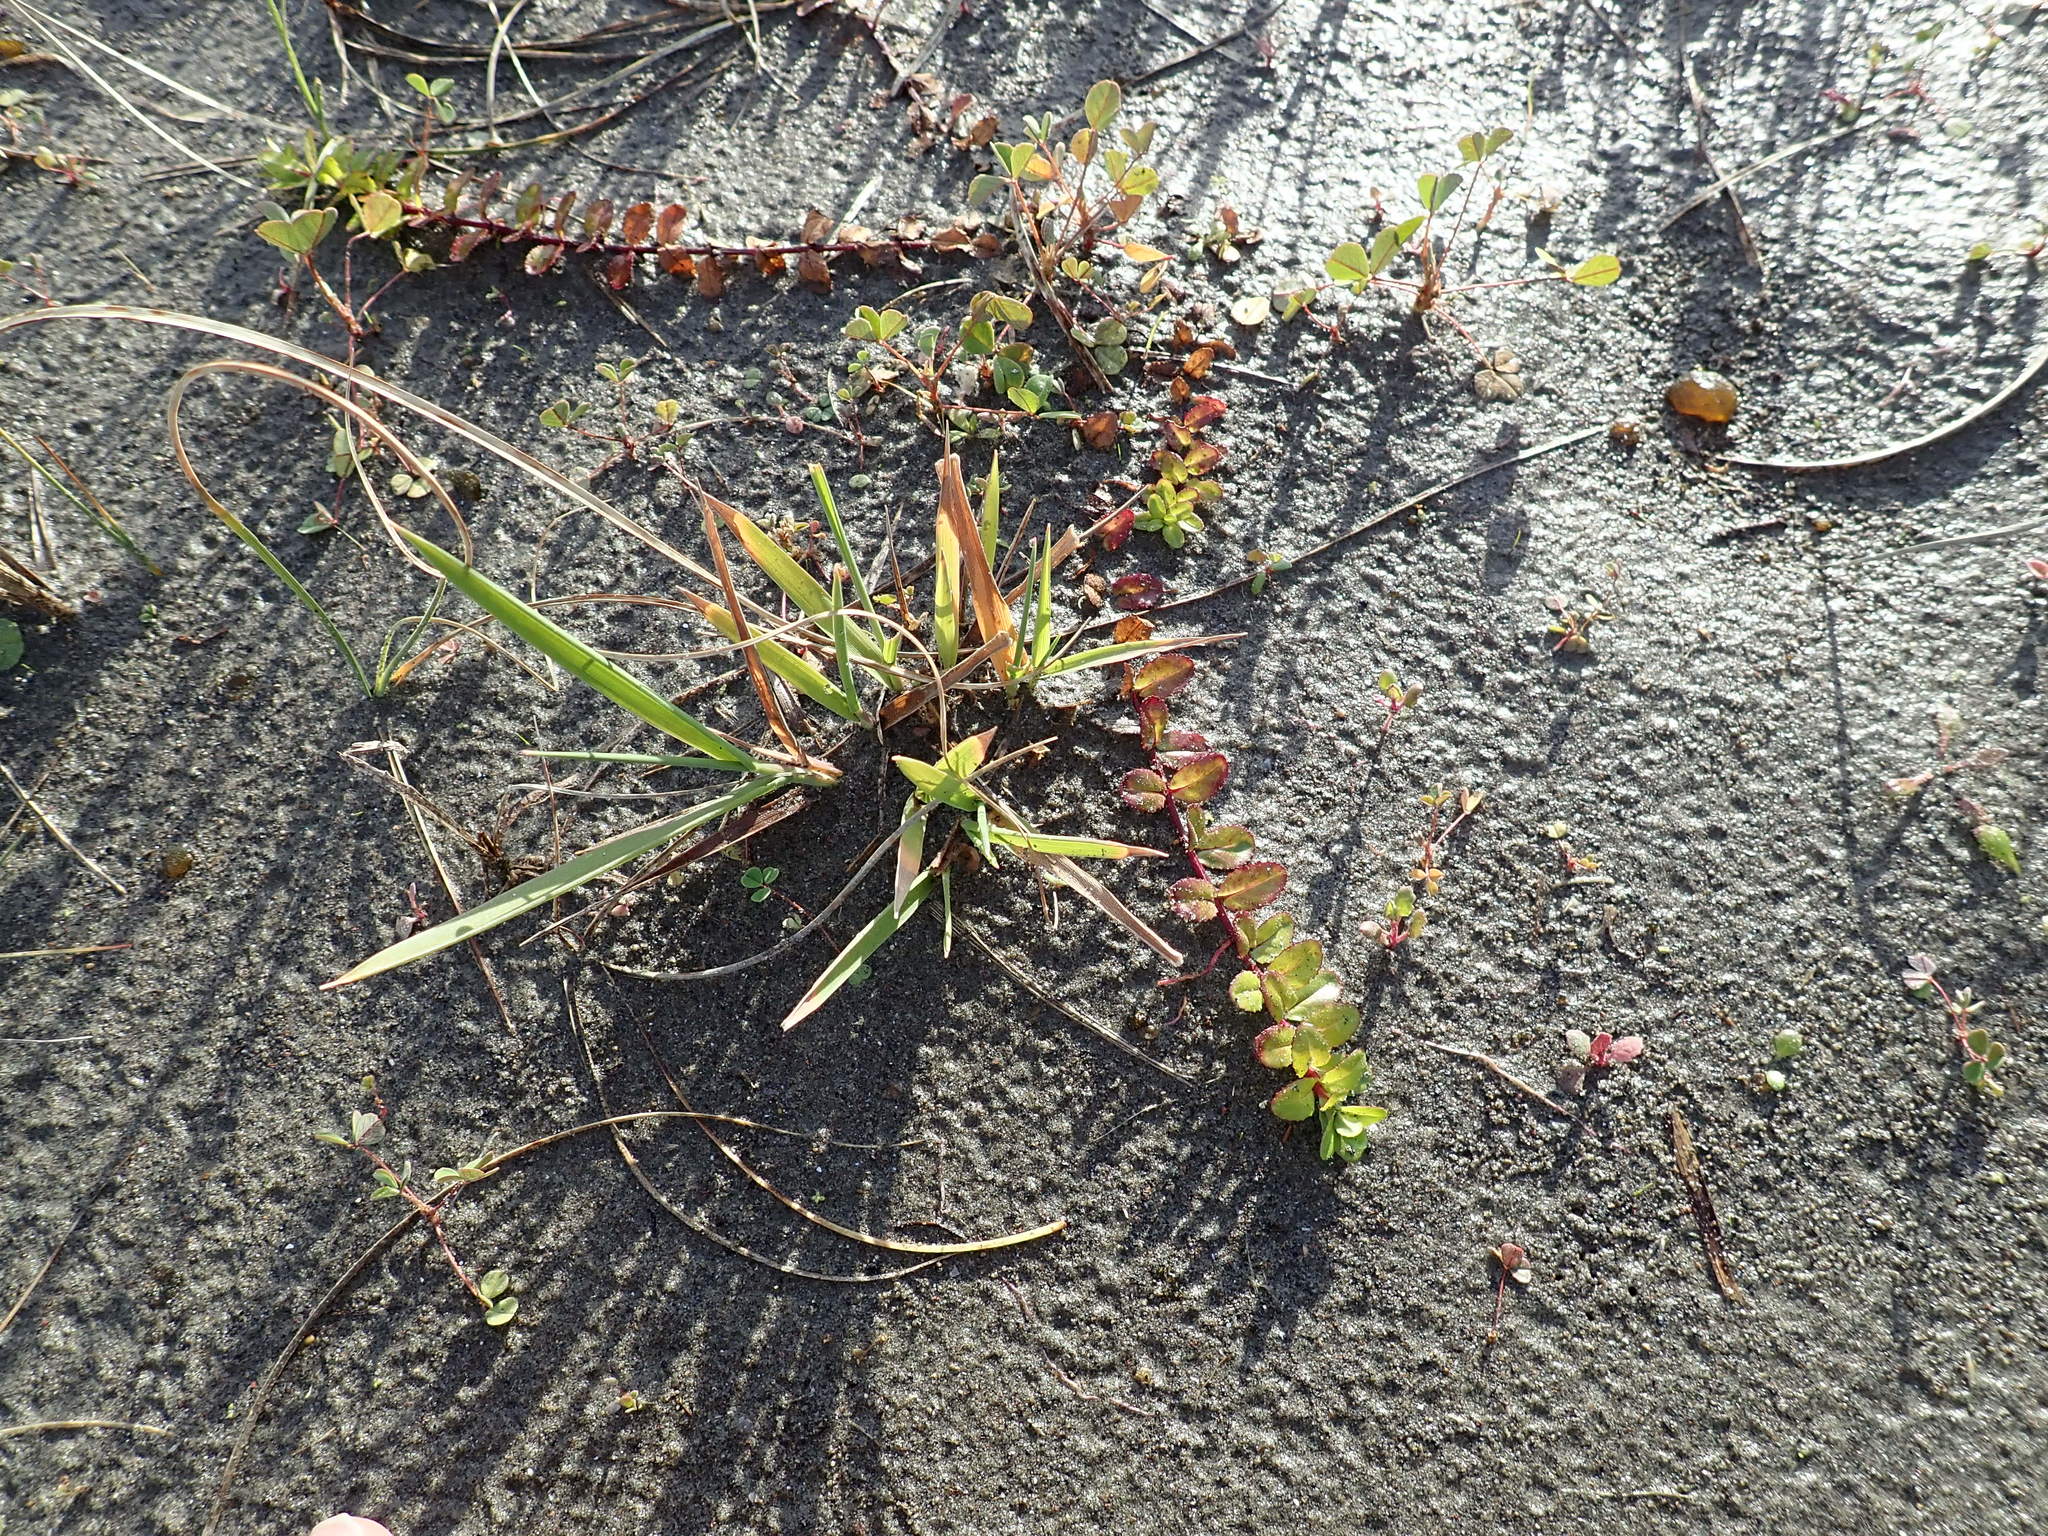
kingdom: Plantae
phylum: Tracheophyta
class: Magnoliopsida
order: Myrtales
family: Onagraceae
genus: Epilobium
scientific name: Epilobium billardiereanum
